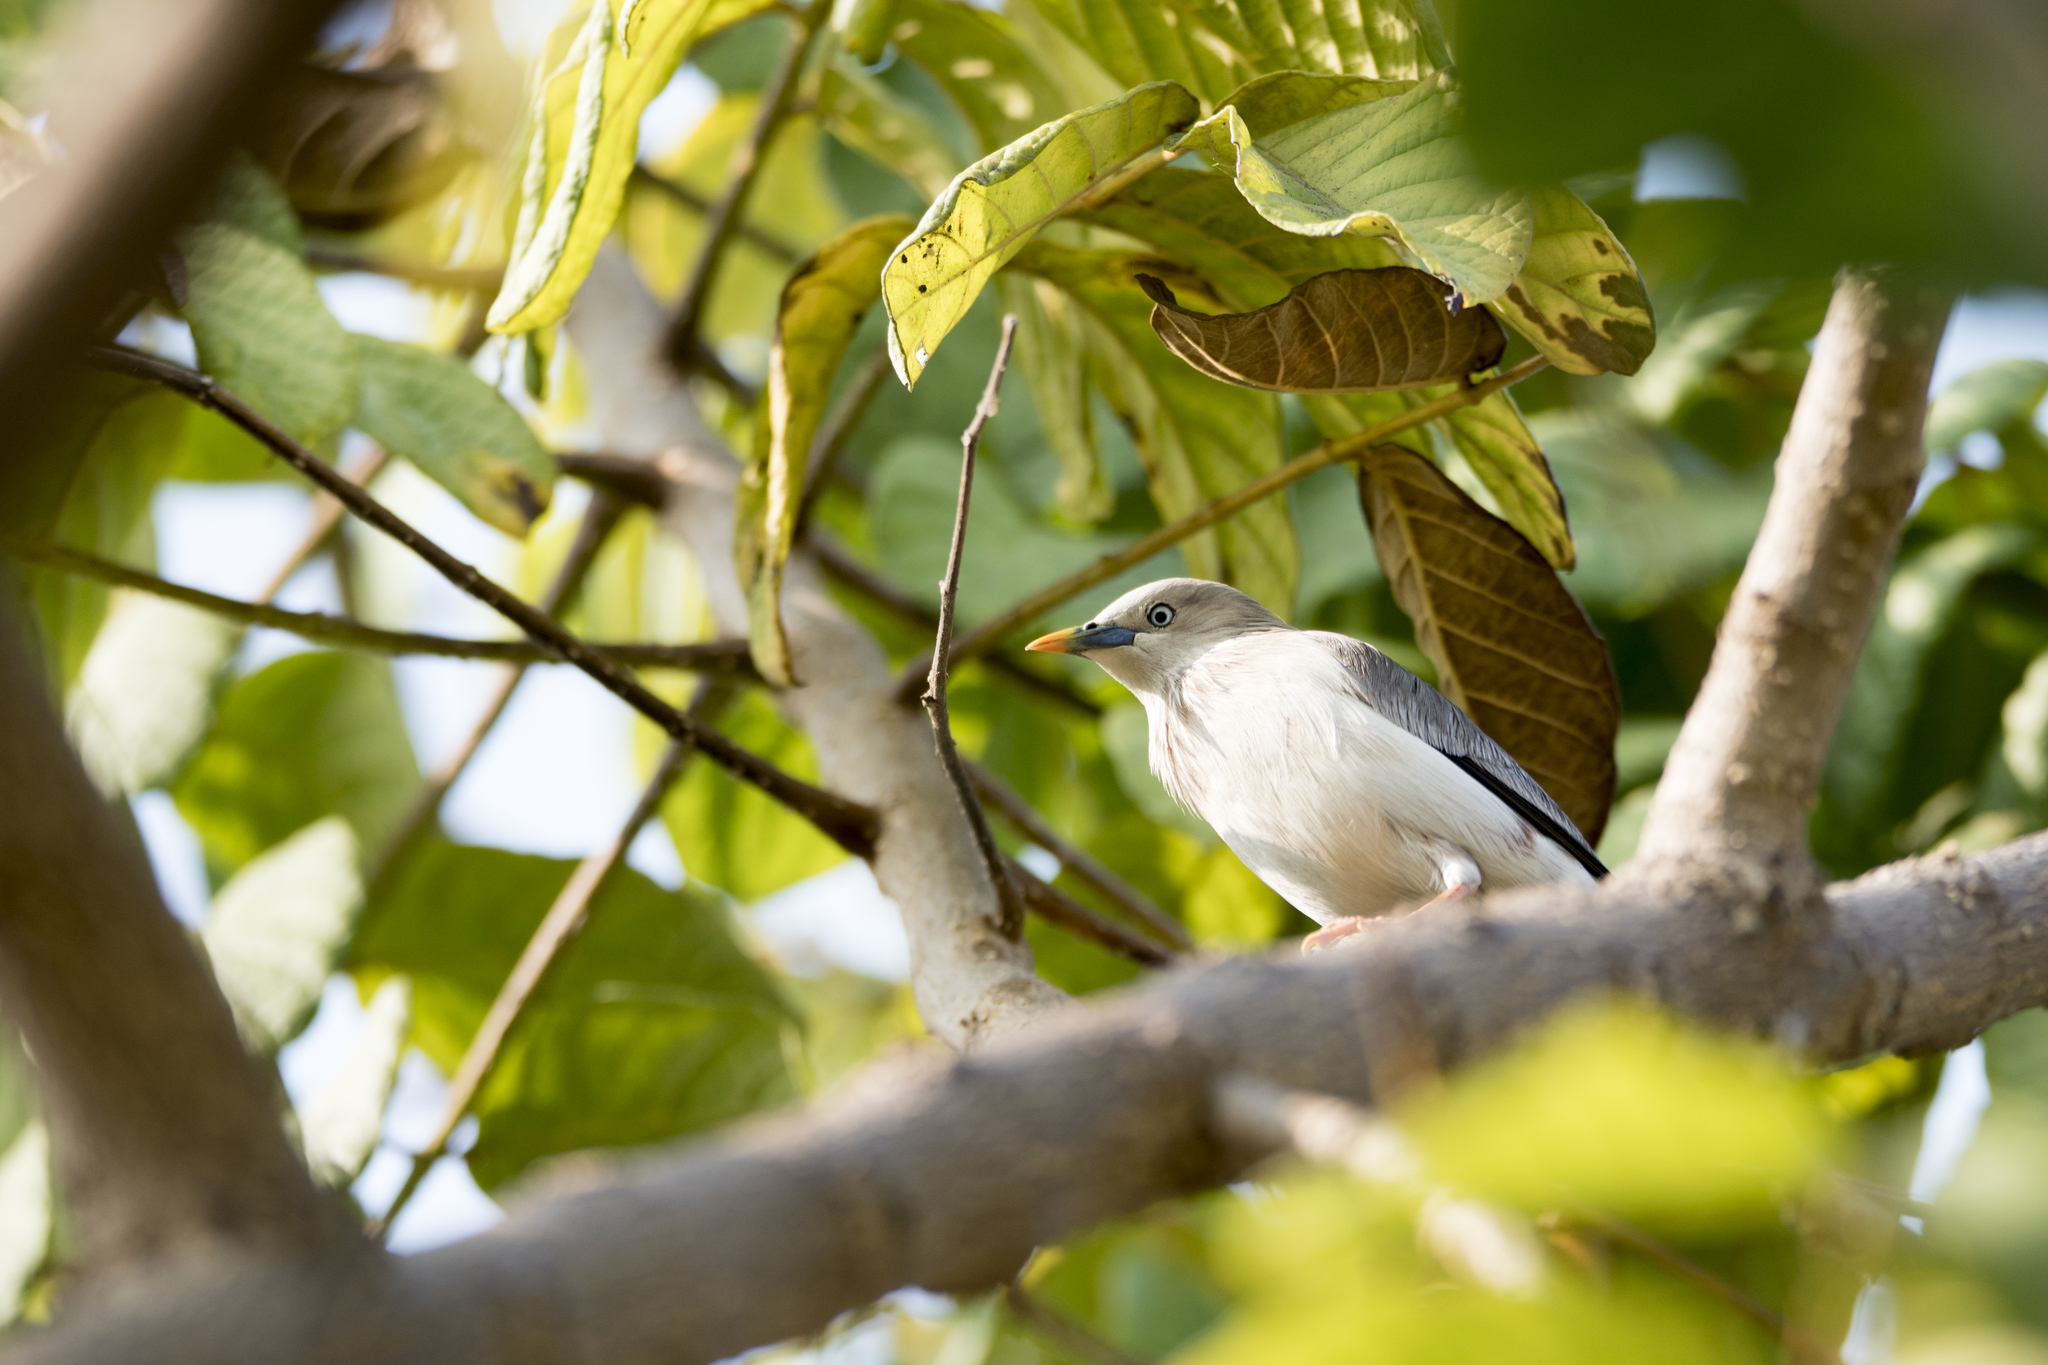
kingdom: Animalia
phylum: Chordata
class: Aves
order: Passeriformes
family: Sturnidae
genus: Sturnia
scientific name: Sturnia malabarica
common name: Chestnut-tailed starling
